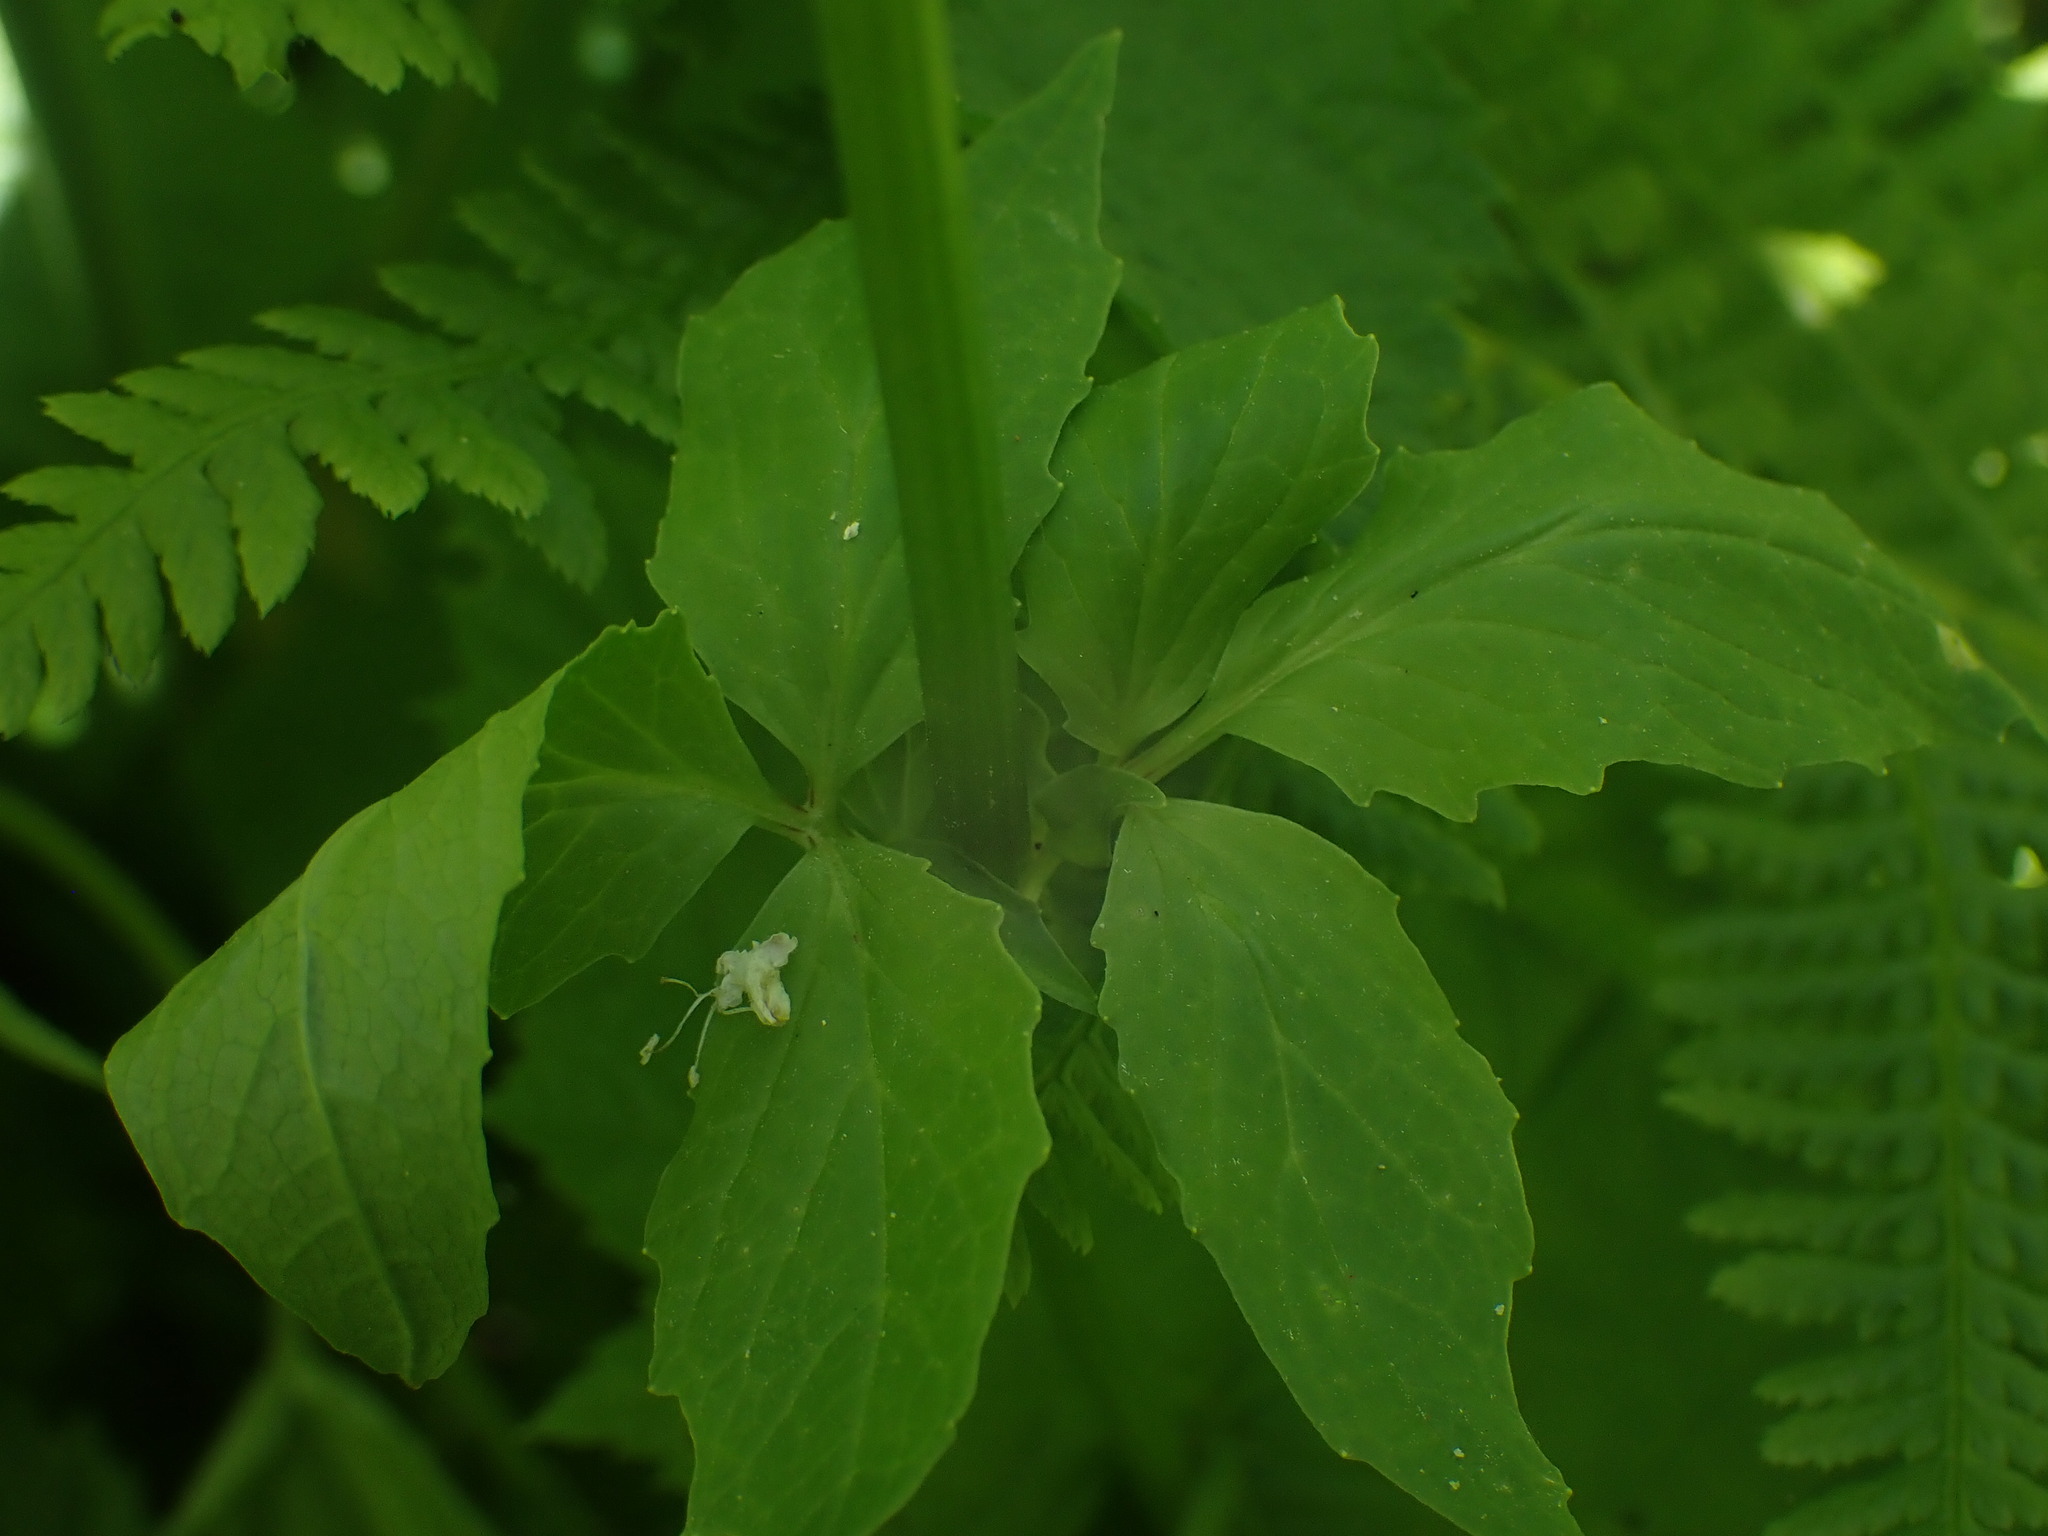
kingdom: Plantae
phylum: Tracheophyta
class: Magnoliopsida
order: Dipsacales
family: Caprifoliaceae
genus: Valeriana
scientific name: Valeriana sitchensis
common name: Pacific valerian
